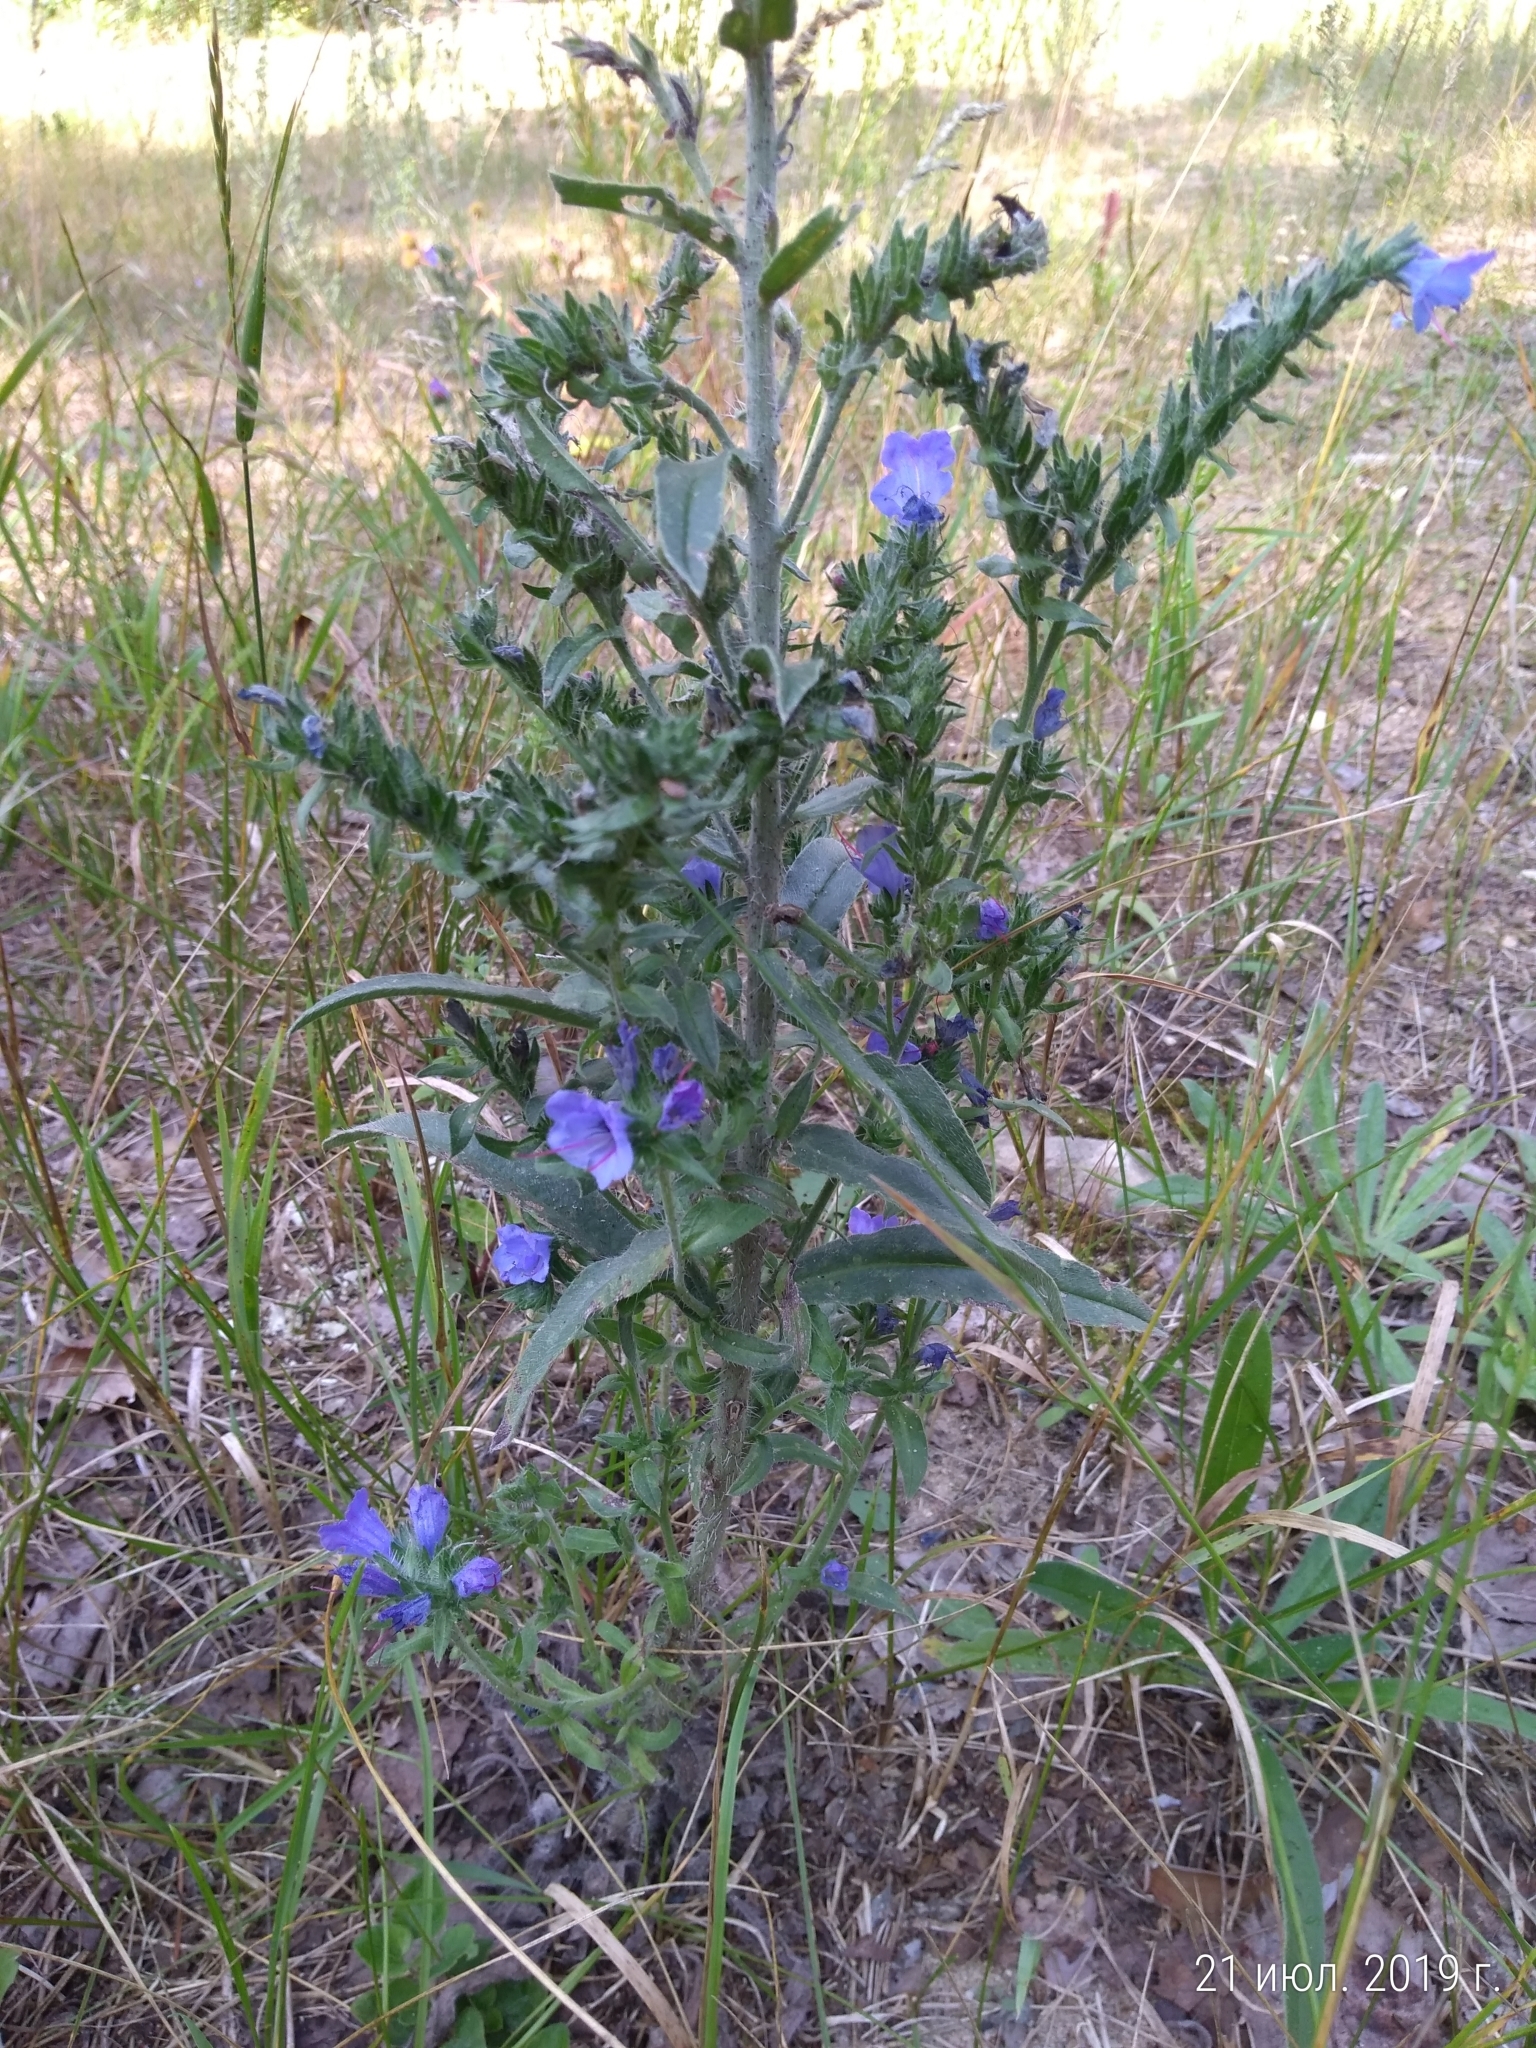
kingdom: Plantae
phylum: Tracheophyta
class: Magnoliopsida
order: Boraginales
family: Boraginaceae
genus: Echium
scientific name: Echium vulgare
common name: Common viper's bugloss
